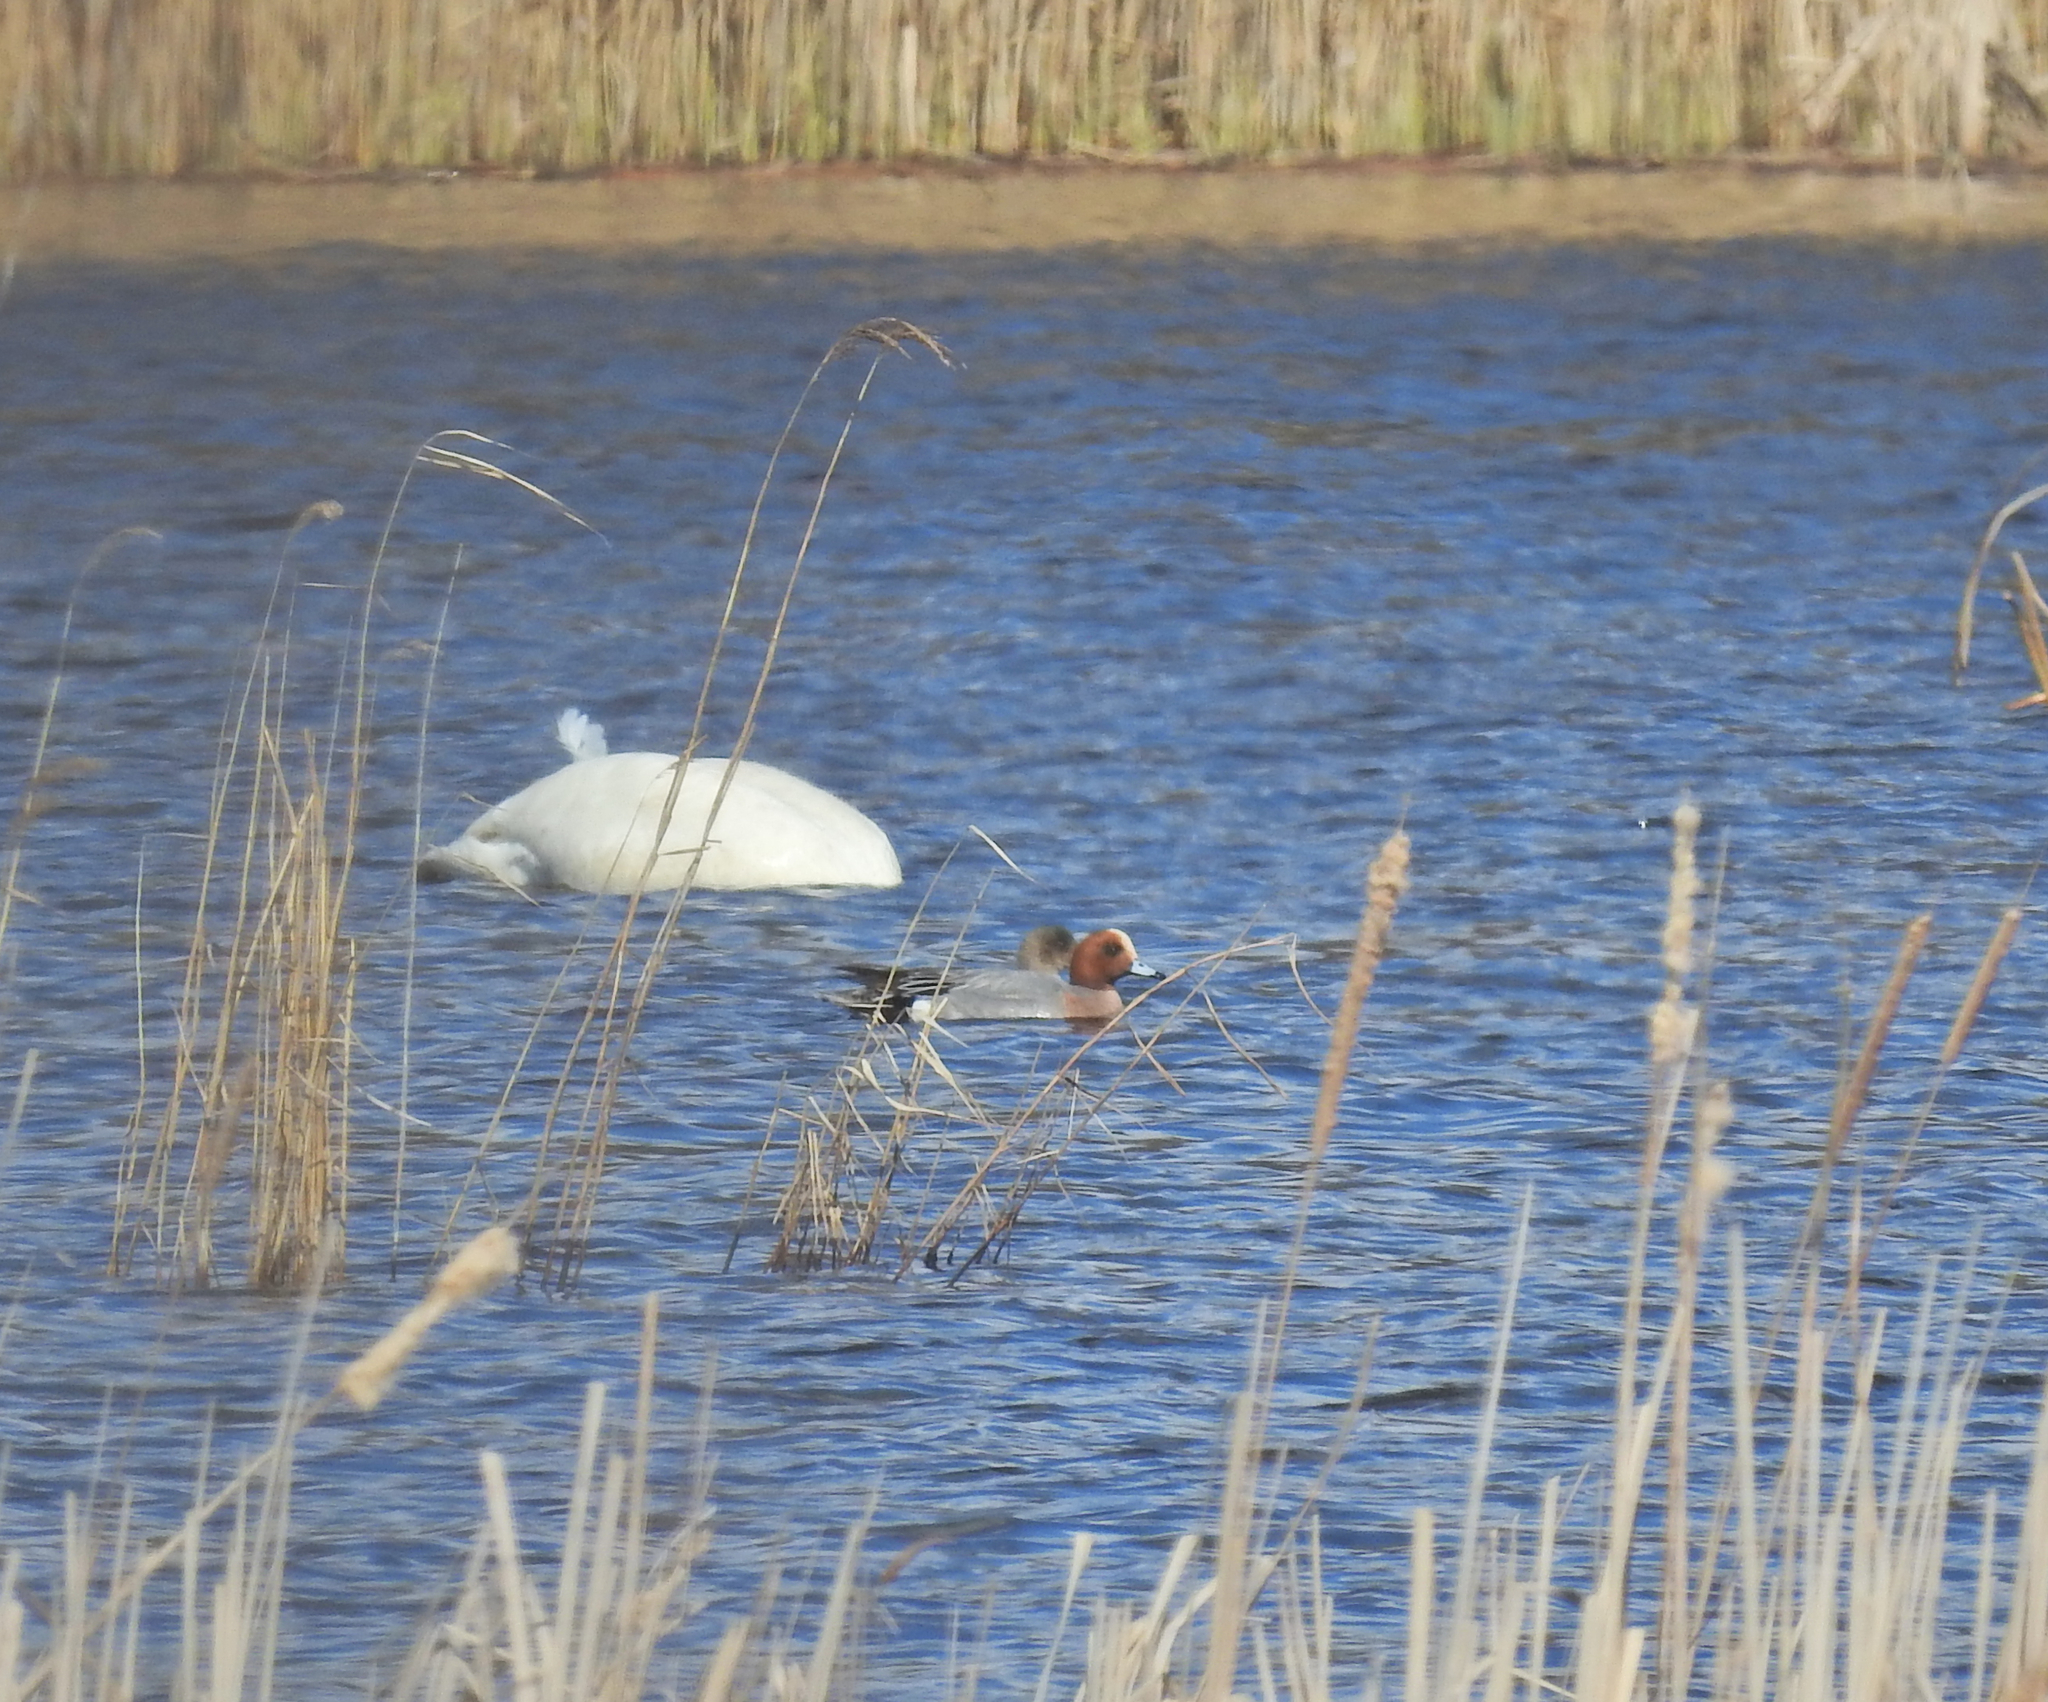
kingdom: Animalia
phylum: Chordata
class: Aves
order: Anseriformes
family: Anatidae
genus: Mareca
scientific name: Mareca penelope
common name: Eurasian wigeon
